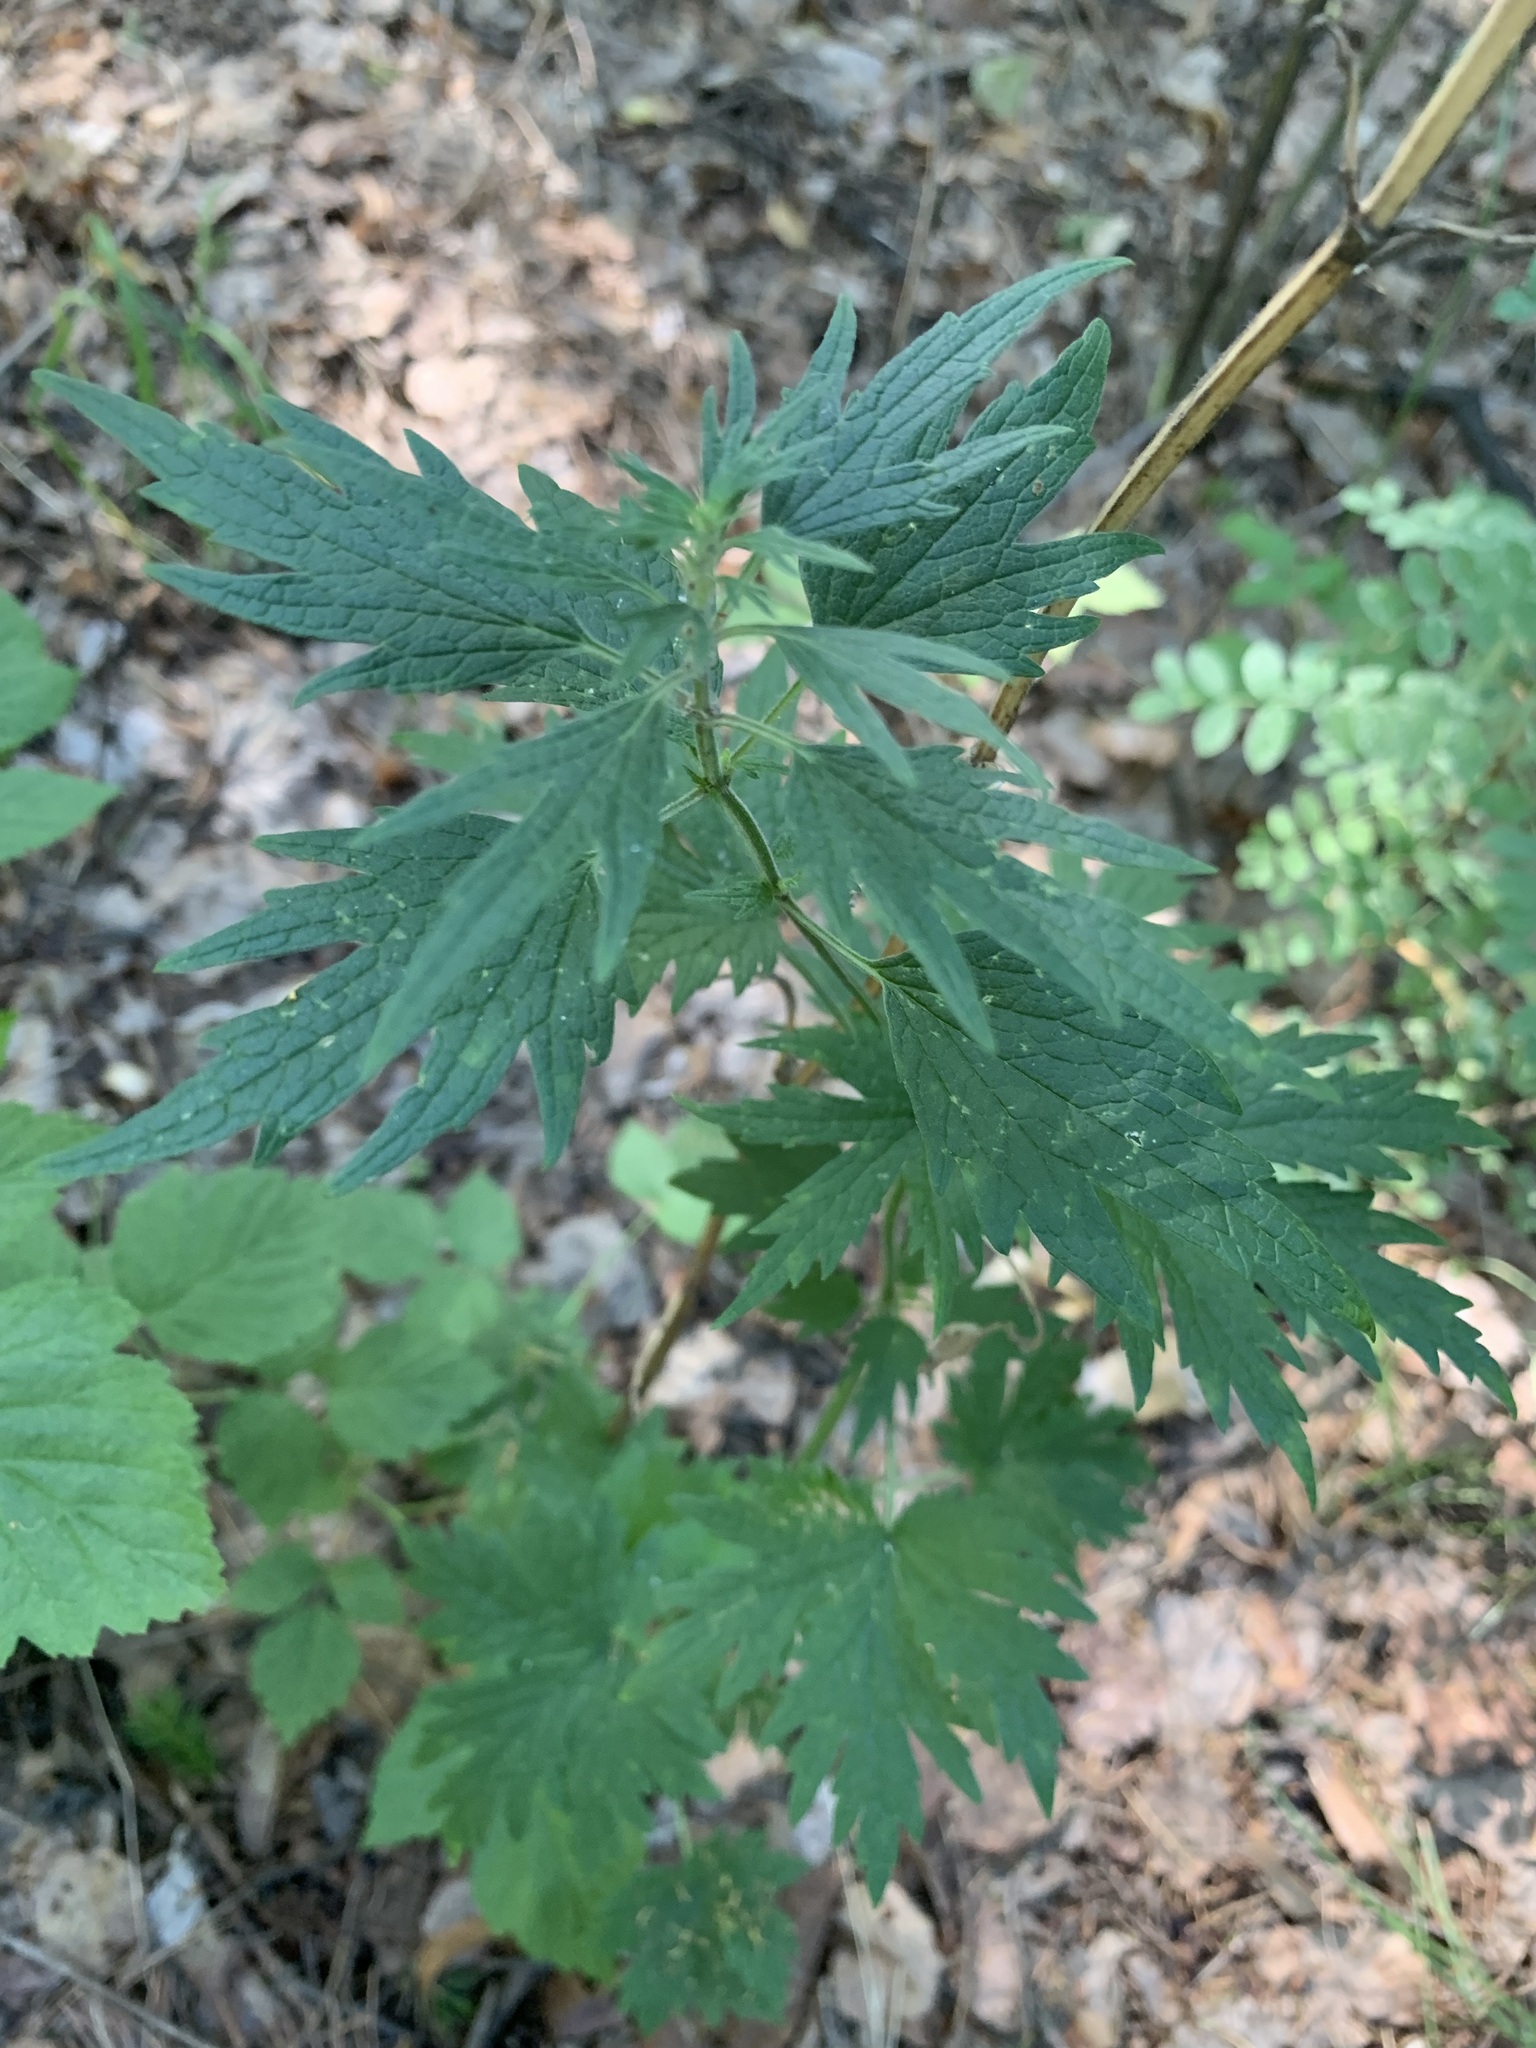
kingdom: Plantae
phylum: Tracheophyta
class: Magnoliopsida
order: Lamiales
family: Lamiaceae
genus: Leonurus
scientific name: Leonurus quinquelobatus
